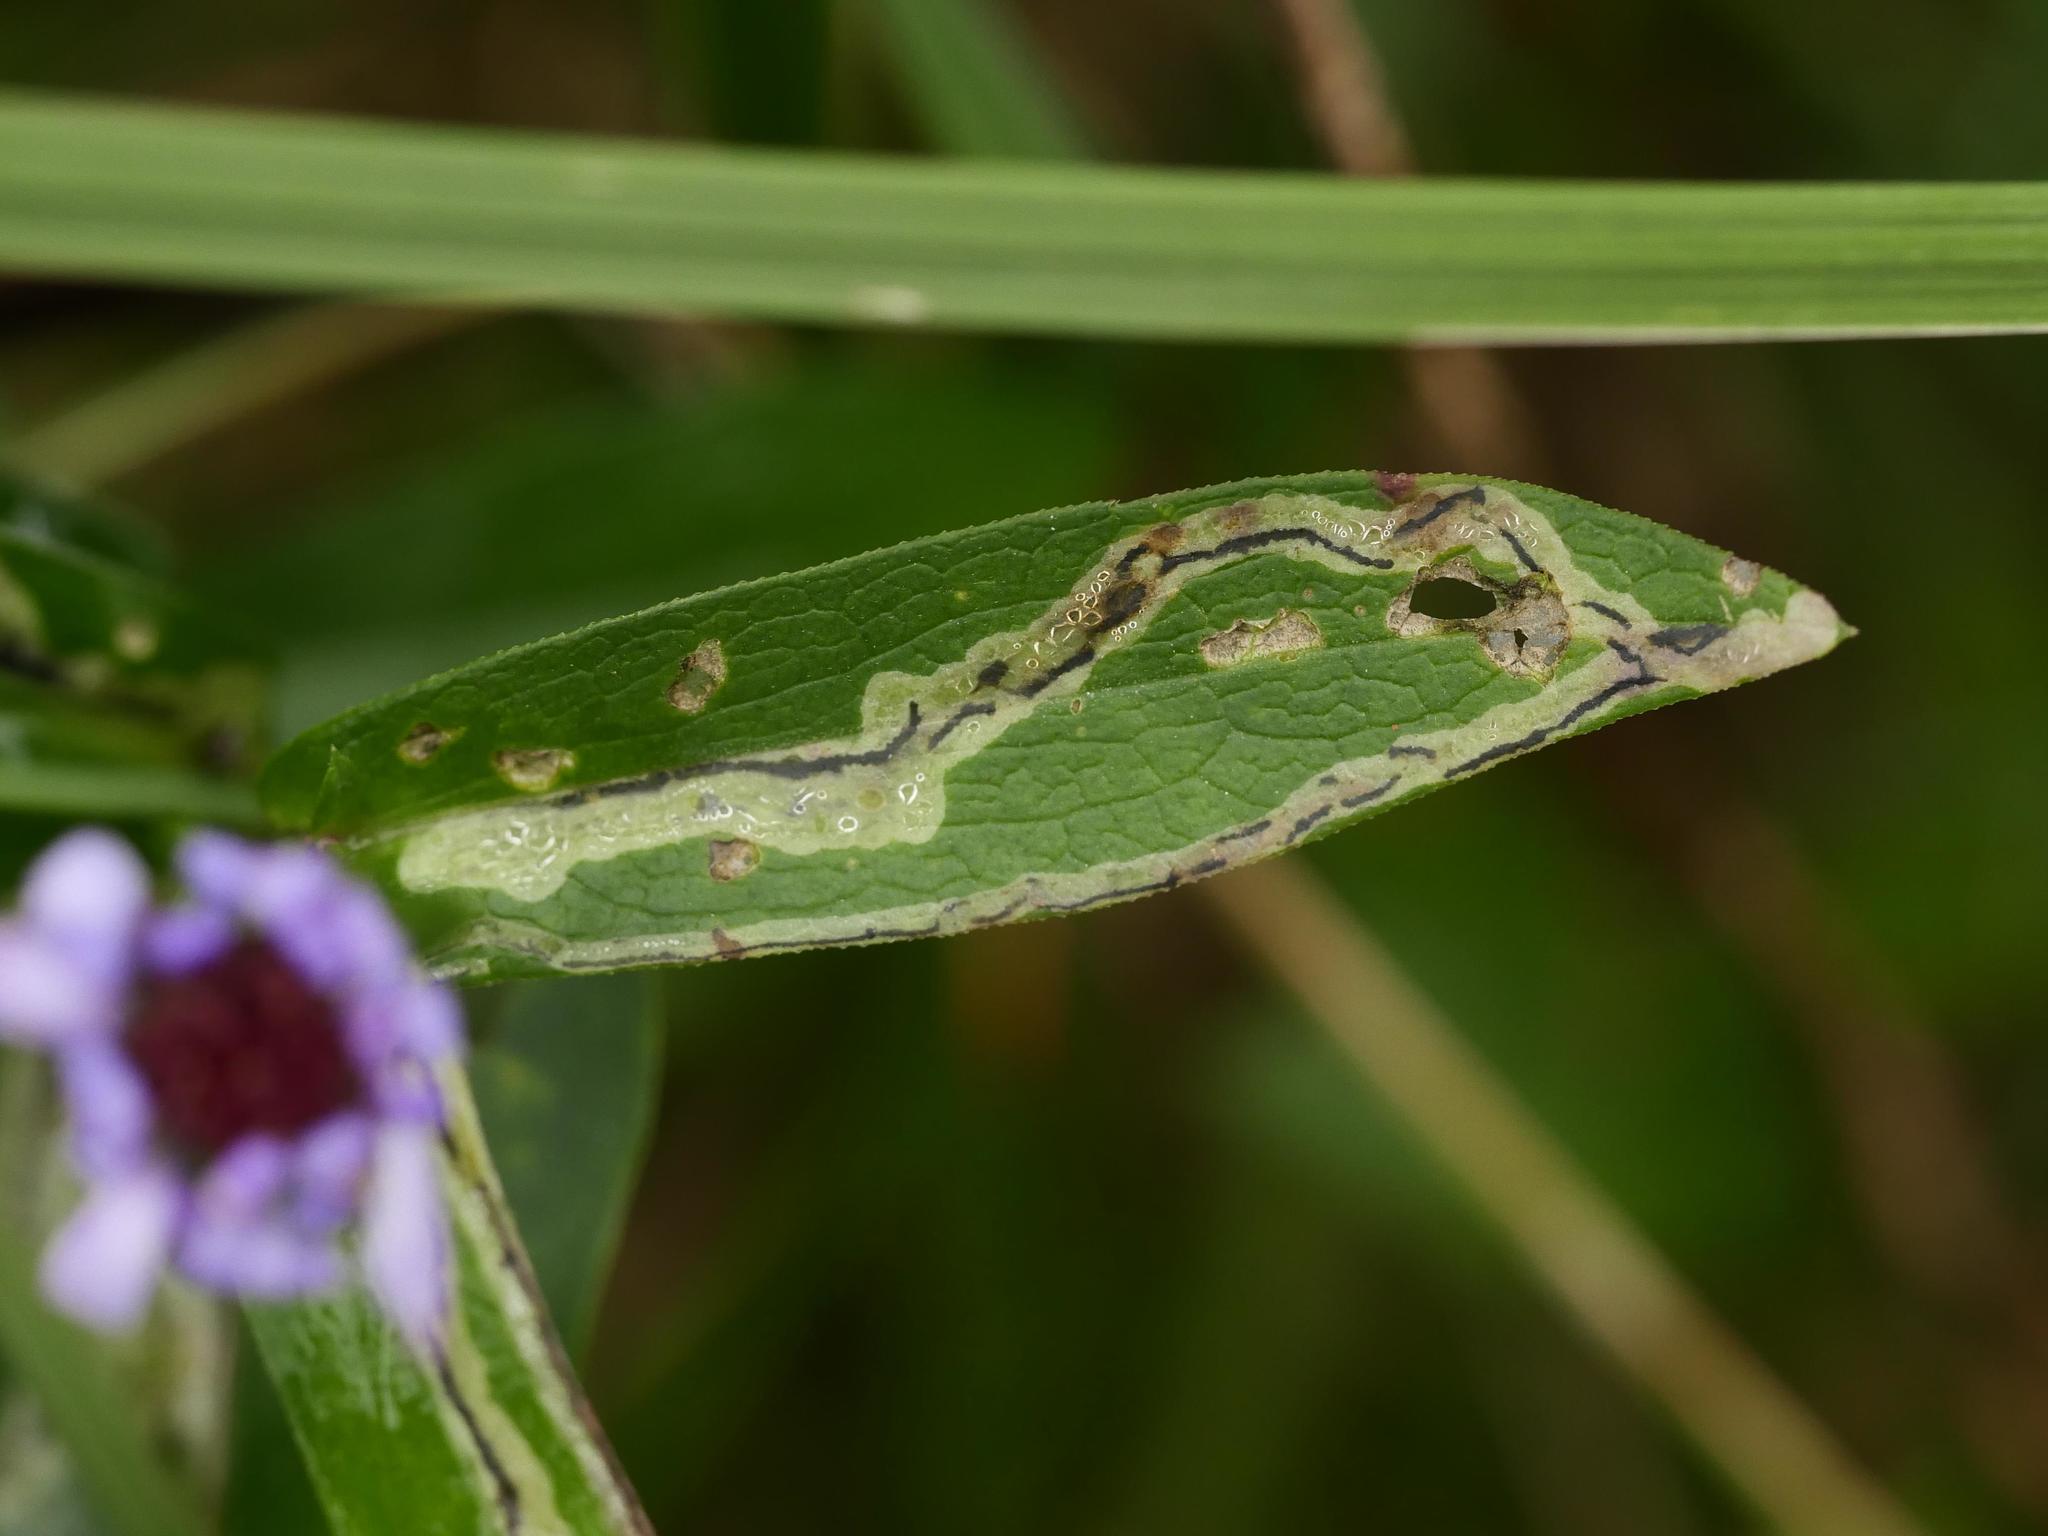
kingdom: Animalia
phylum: Arthropoda
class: Insecta
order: Diptera
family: Agromyzidae
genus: Liriomyza
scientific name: Liriomyza eupatorii
